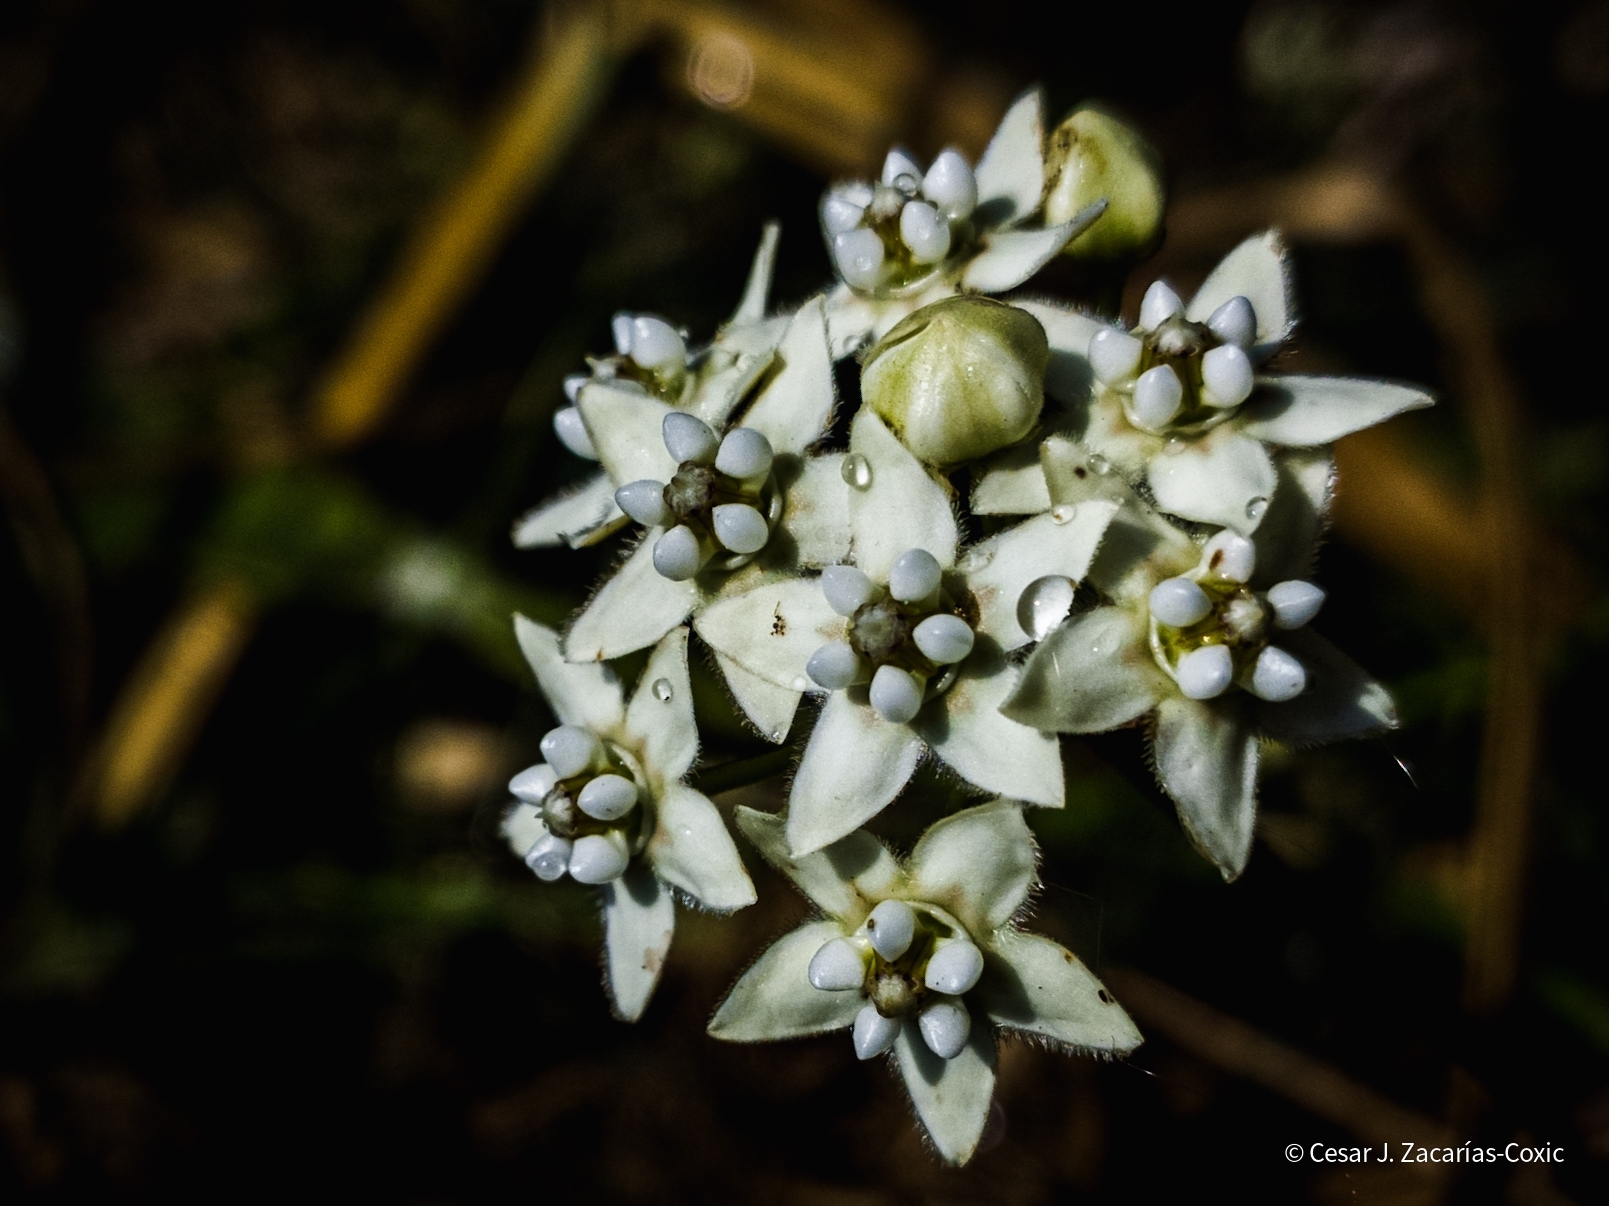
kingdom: Plantae
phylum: Tracheophyta
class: Magnoliopsida
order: Gentianales
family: Apocynaceae
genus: Funastrum
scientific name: Funastrum clausum
